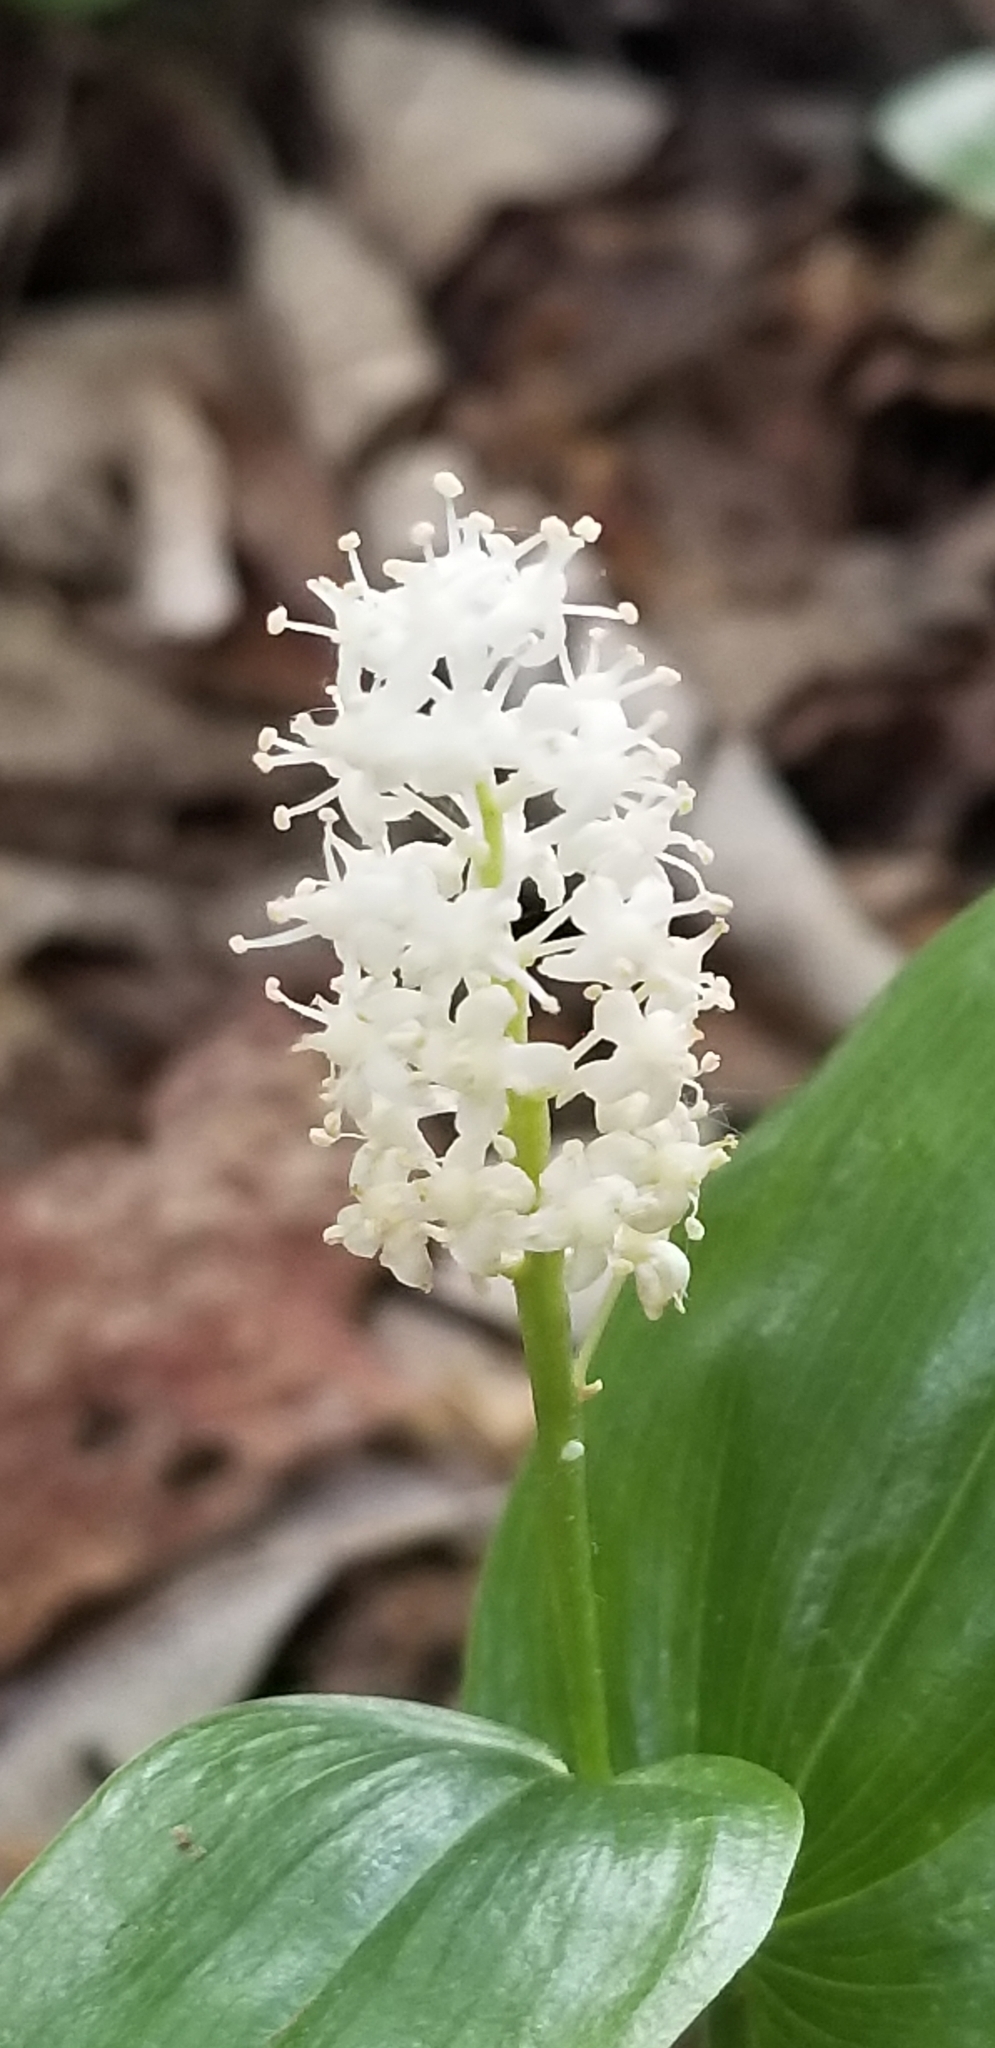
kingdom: Plantae
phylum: Tracheophyta
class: Liliopsida
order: Asparagales
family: Asparagaceae
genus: Maianthemum
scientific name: Maianthemum canadense
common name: False lily-of-the-valley
